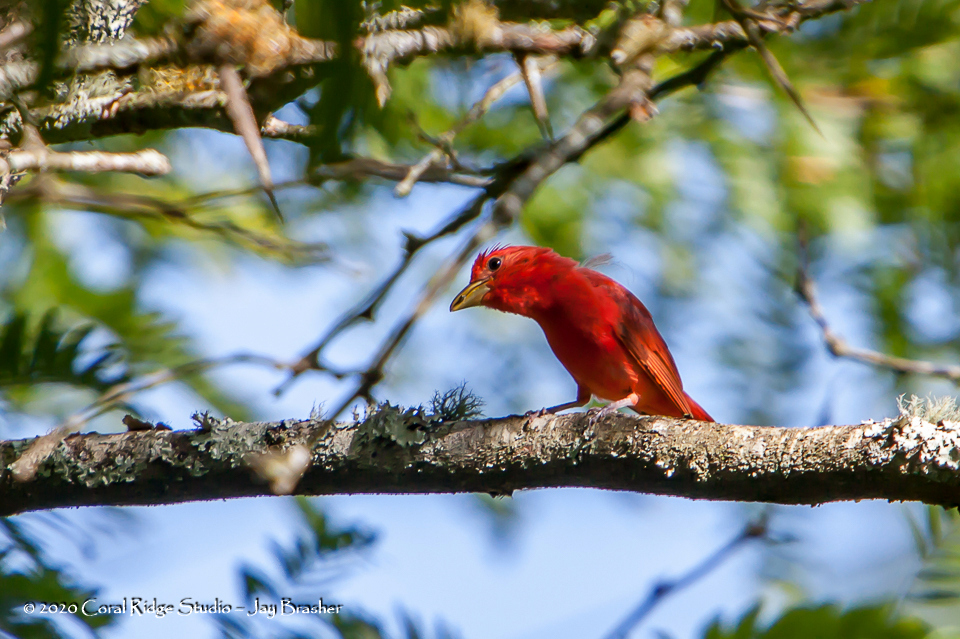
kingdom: Animalia
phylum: Chordata
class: Aves
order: Passeriformes
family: Cardinalidae
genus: Piranga
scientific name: Piranga rubra
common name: Summer tanager
